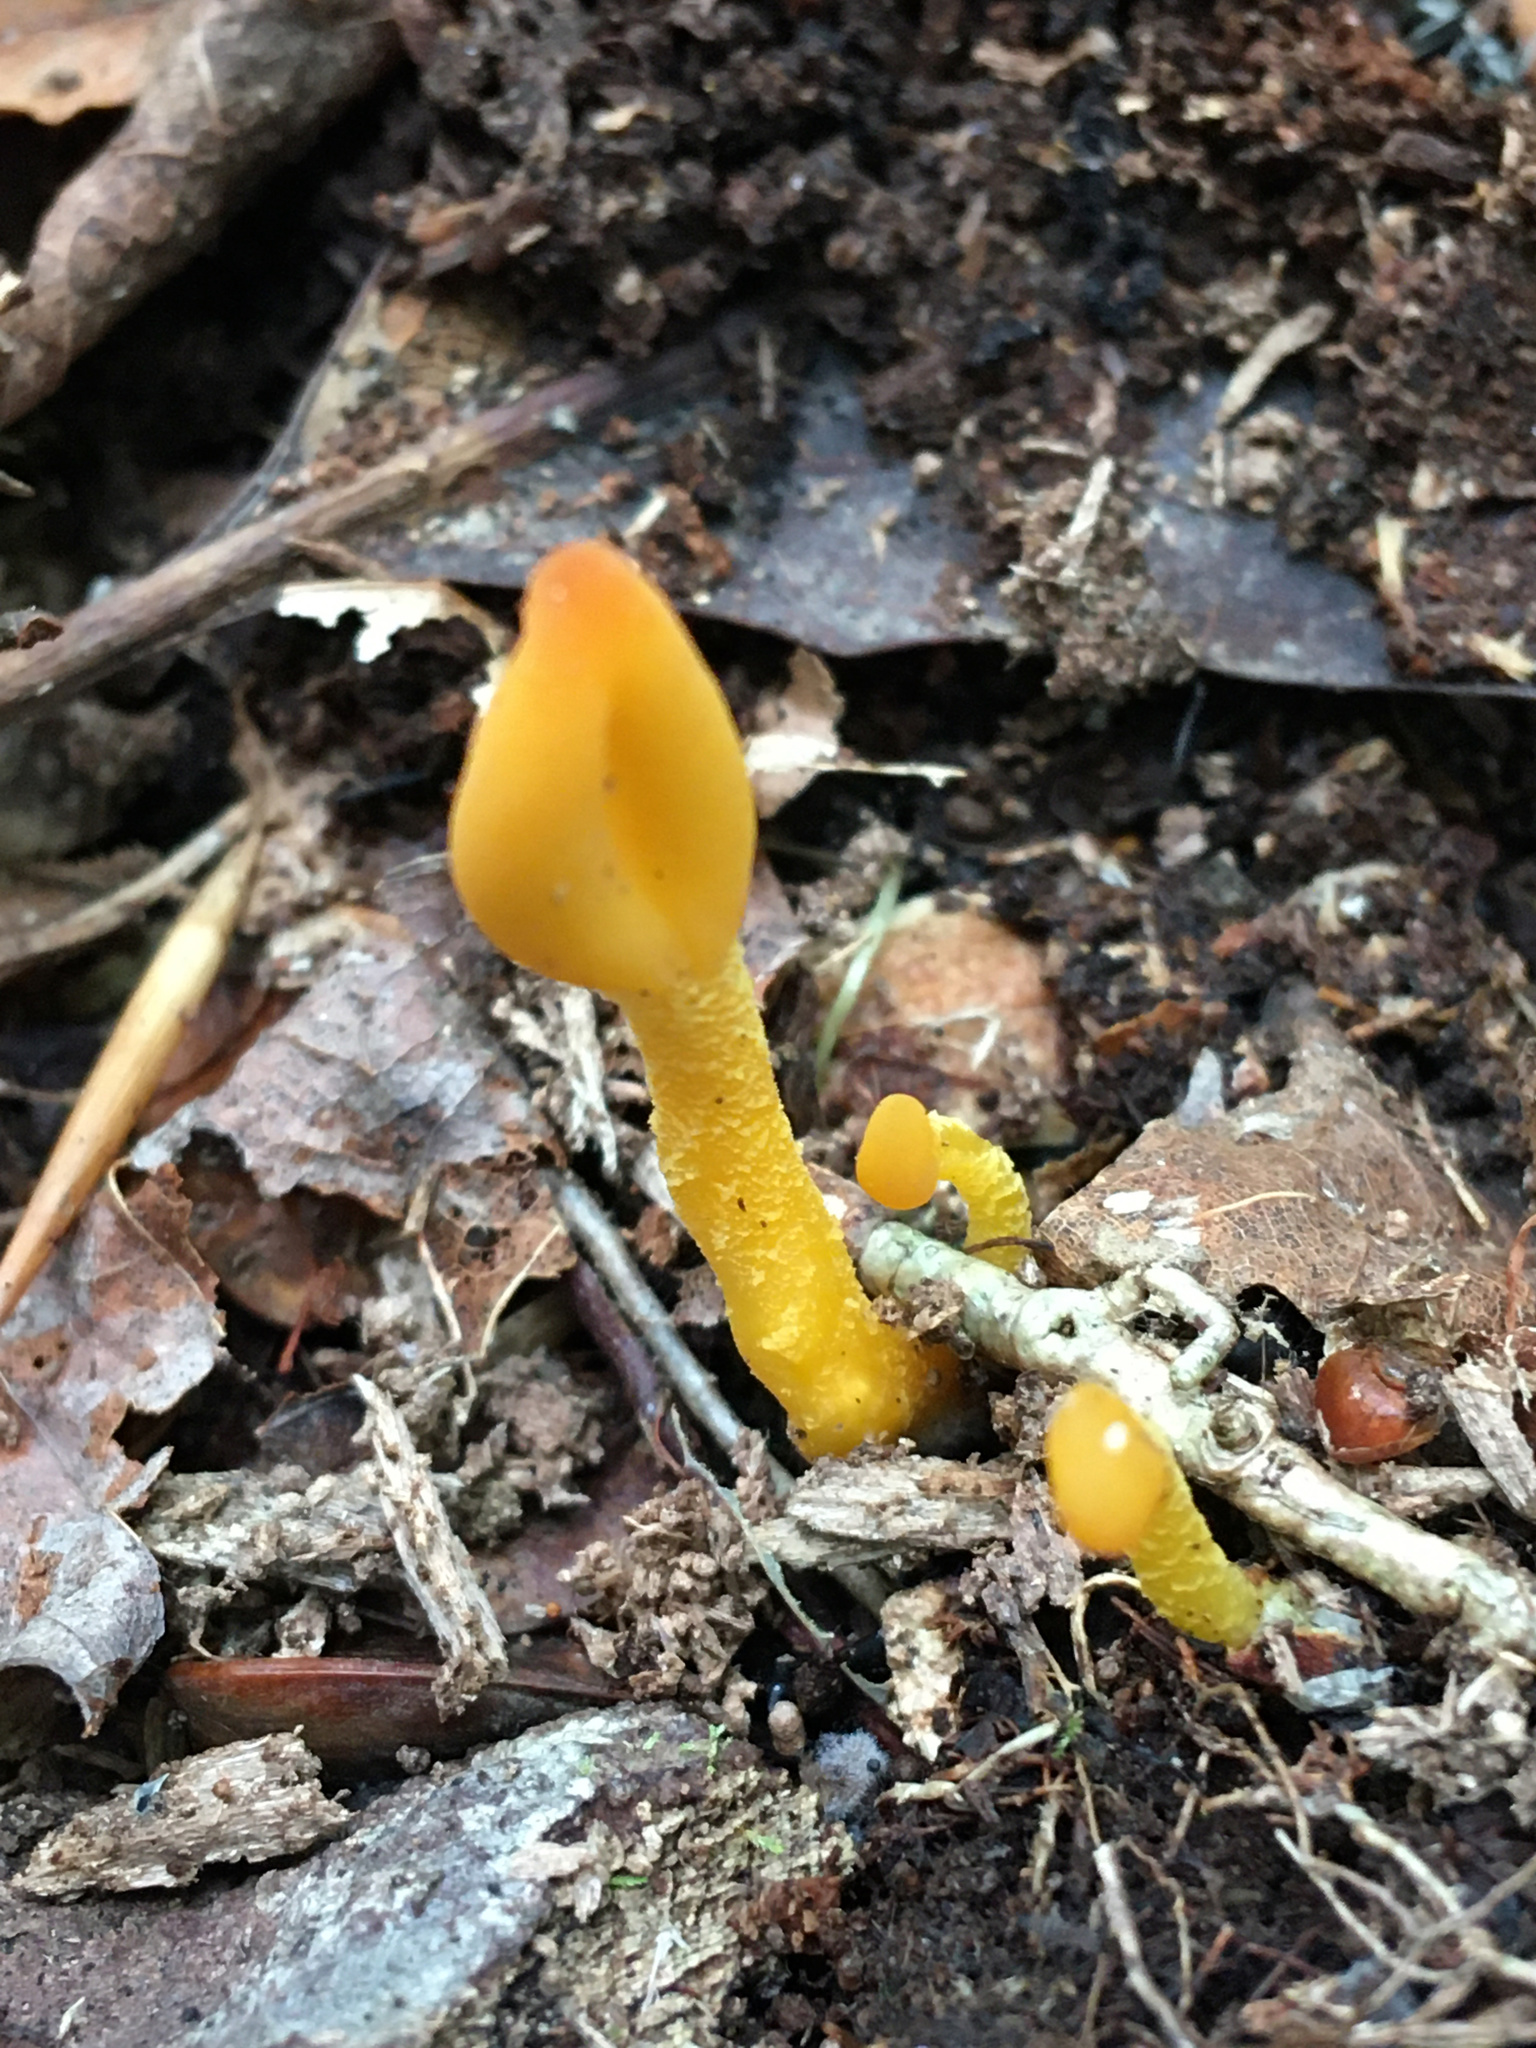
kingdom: Fungi
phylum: Ascomycota
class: Leotiomycetes
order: Leotiales
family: Leotiaceae
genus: Microglossum
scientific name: Microglossum rufum
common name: Orange earthtongue
